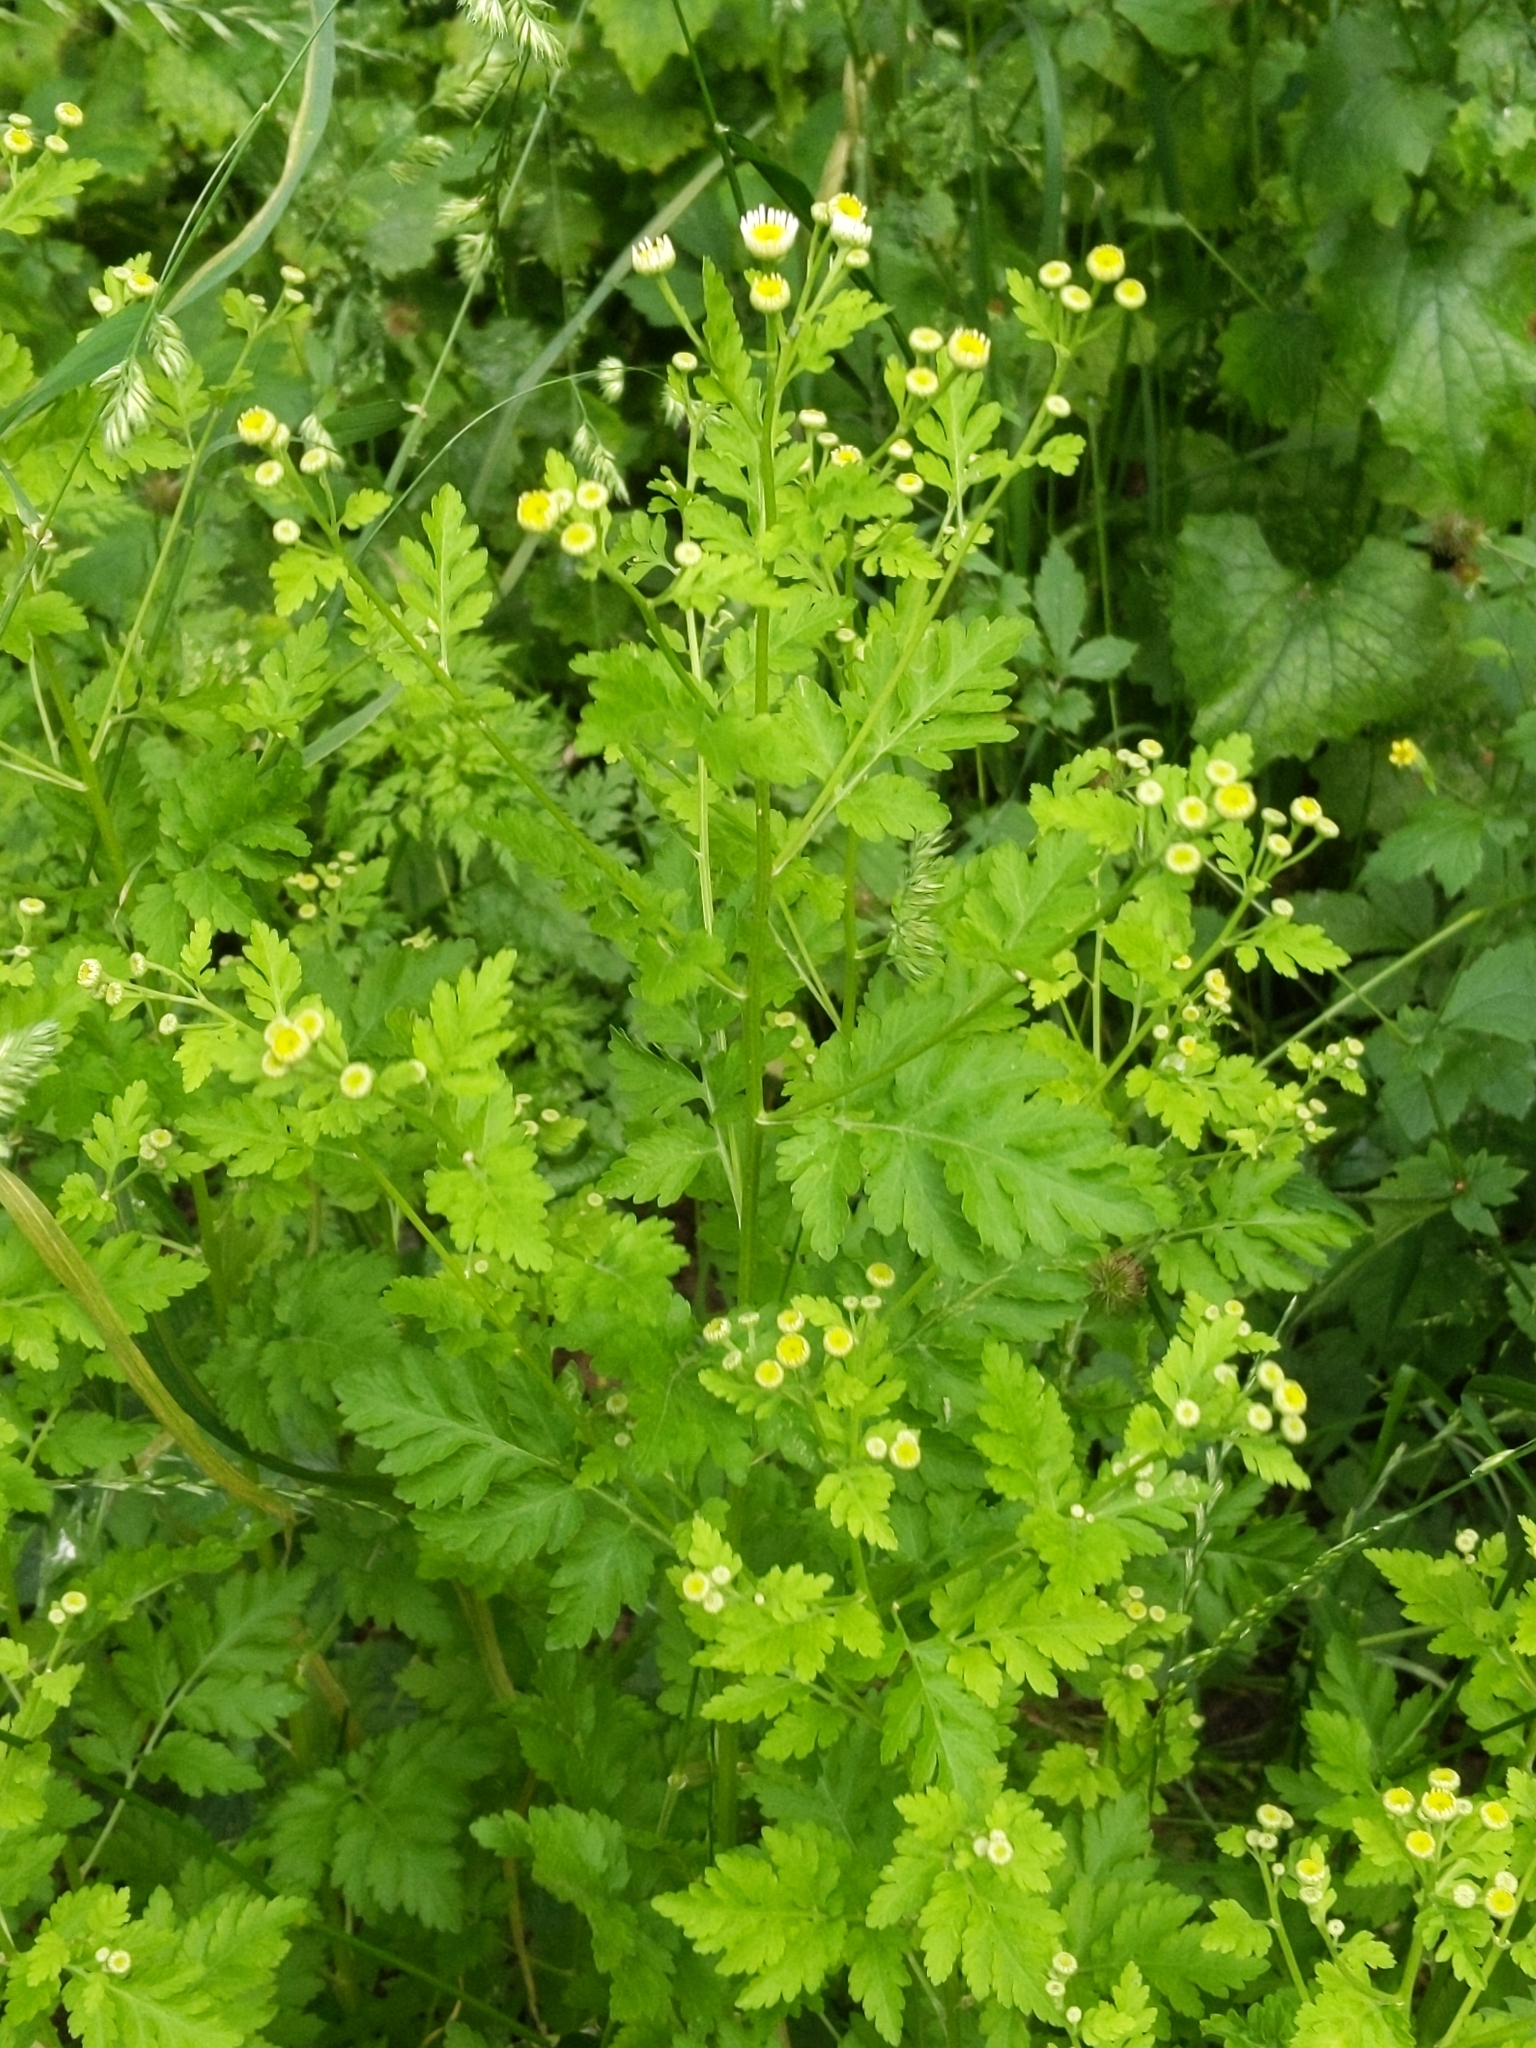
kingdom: Plantae
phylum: Tracheophyta
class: Magnoliopsida
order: Asterales
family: Asteraceae
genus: Tanacetum
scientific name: Tanacetum parthenium
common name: Feverfew
